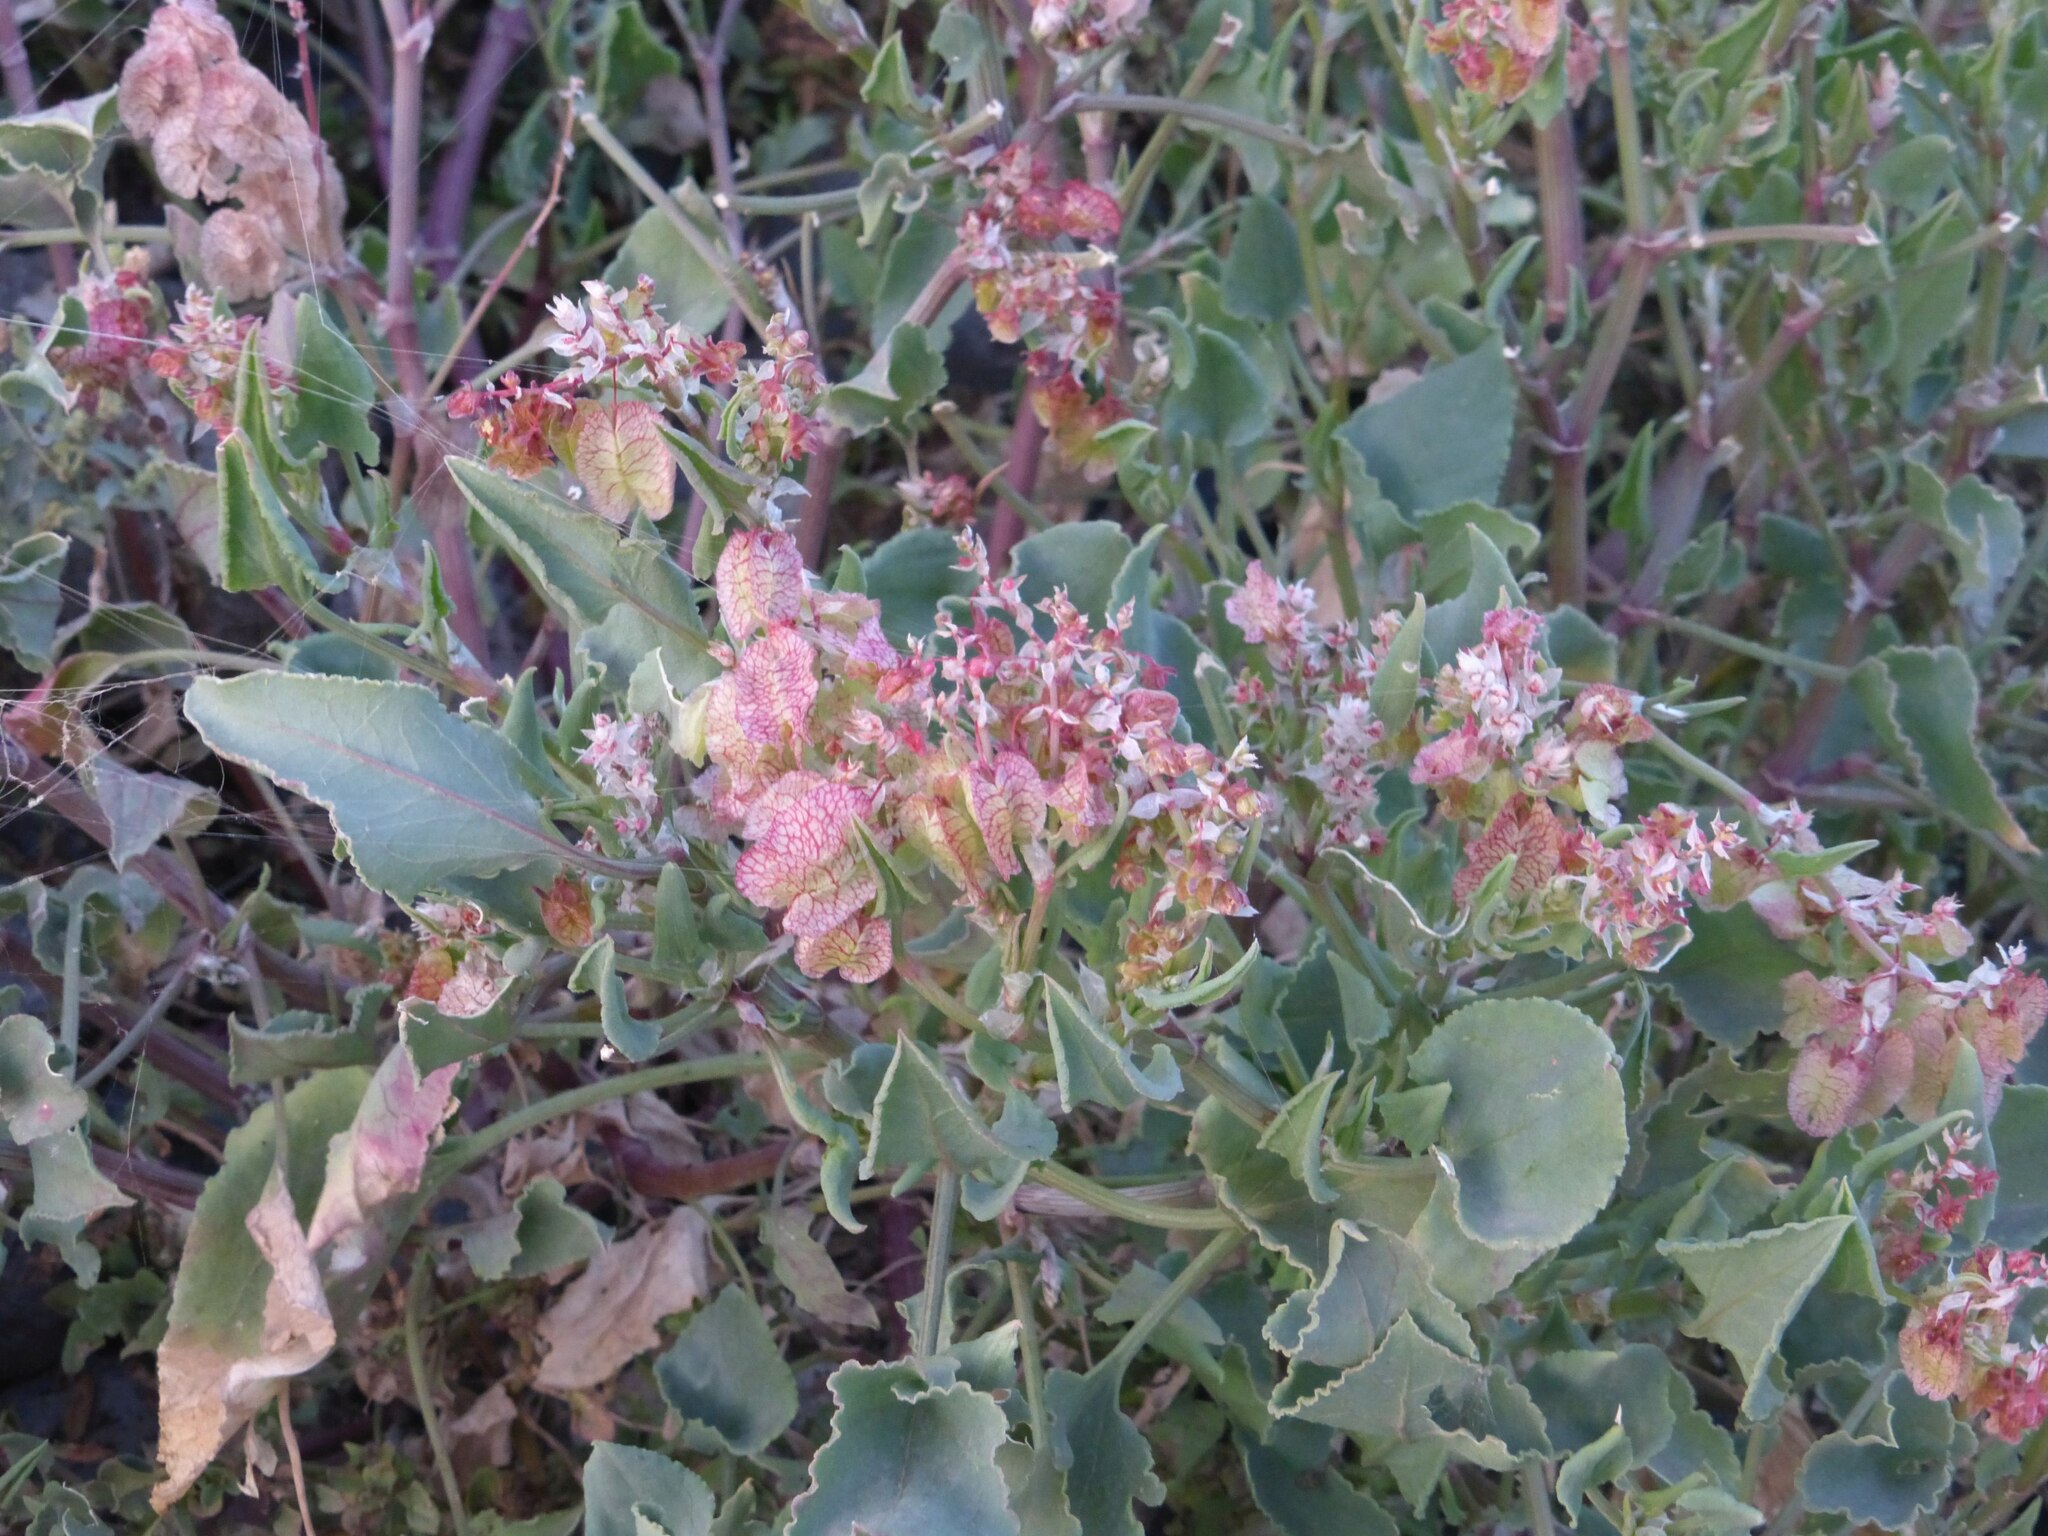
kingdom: Plantae
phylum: Tracheophyta
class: Magnoliopsida
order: Caryophyllales
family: Polygonaceae
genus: Rumex
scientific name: Rumex vesicarius
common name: Bladder dock
